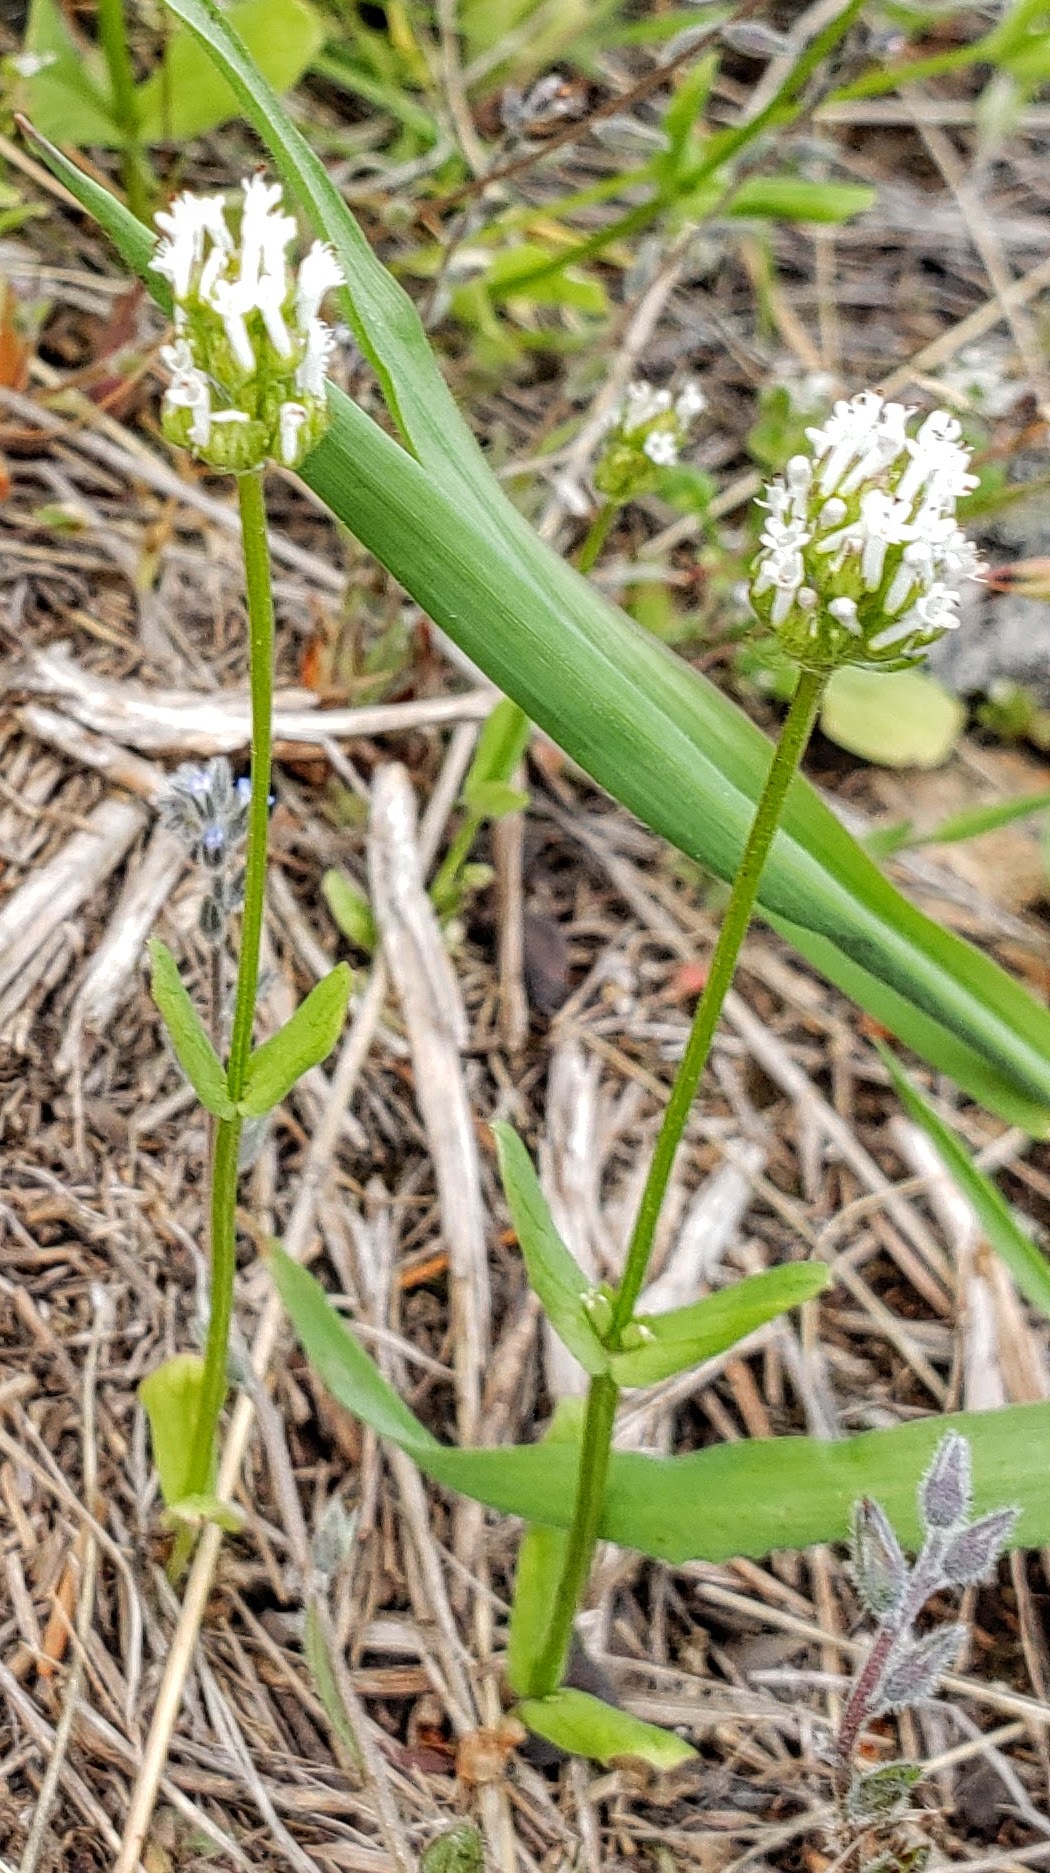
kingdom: Plantae
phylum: Tracheophyta
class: Magnoliopsida
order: Dipsacales
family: Caprifoliaceae
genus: Plectritis
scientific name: Plectritis macroptera
